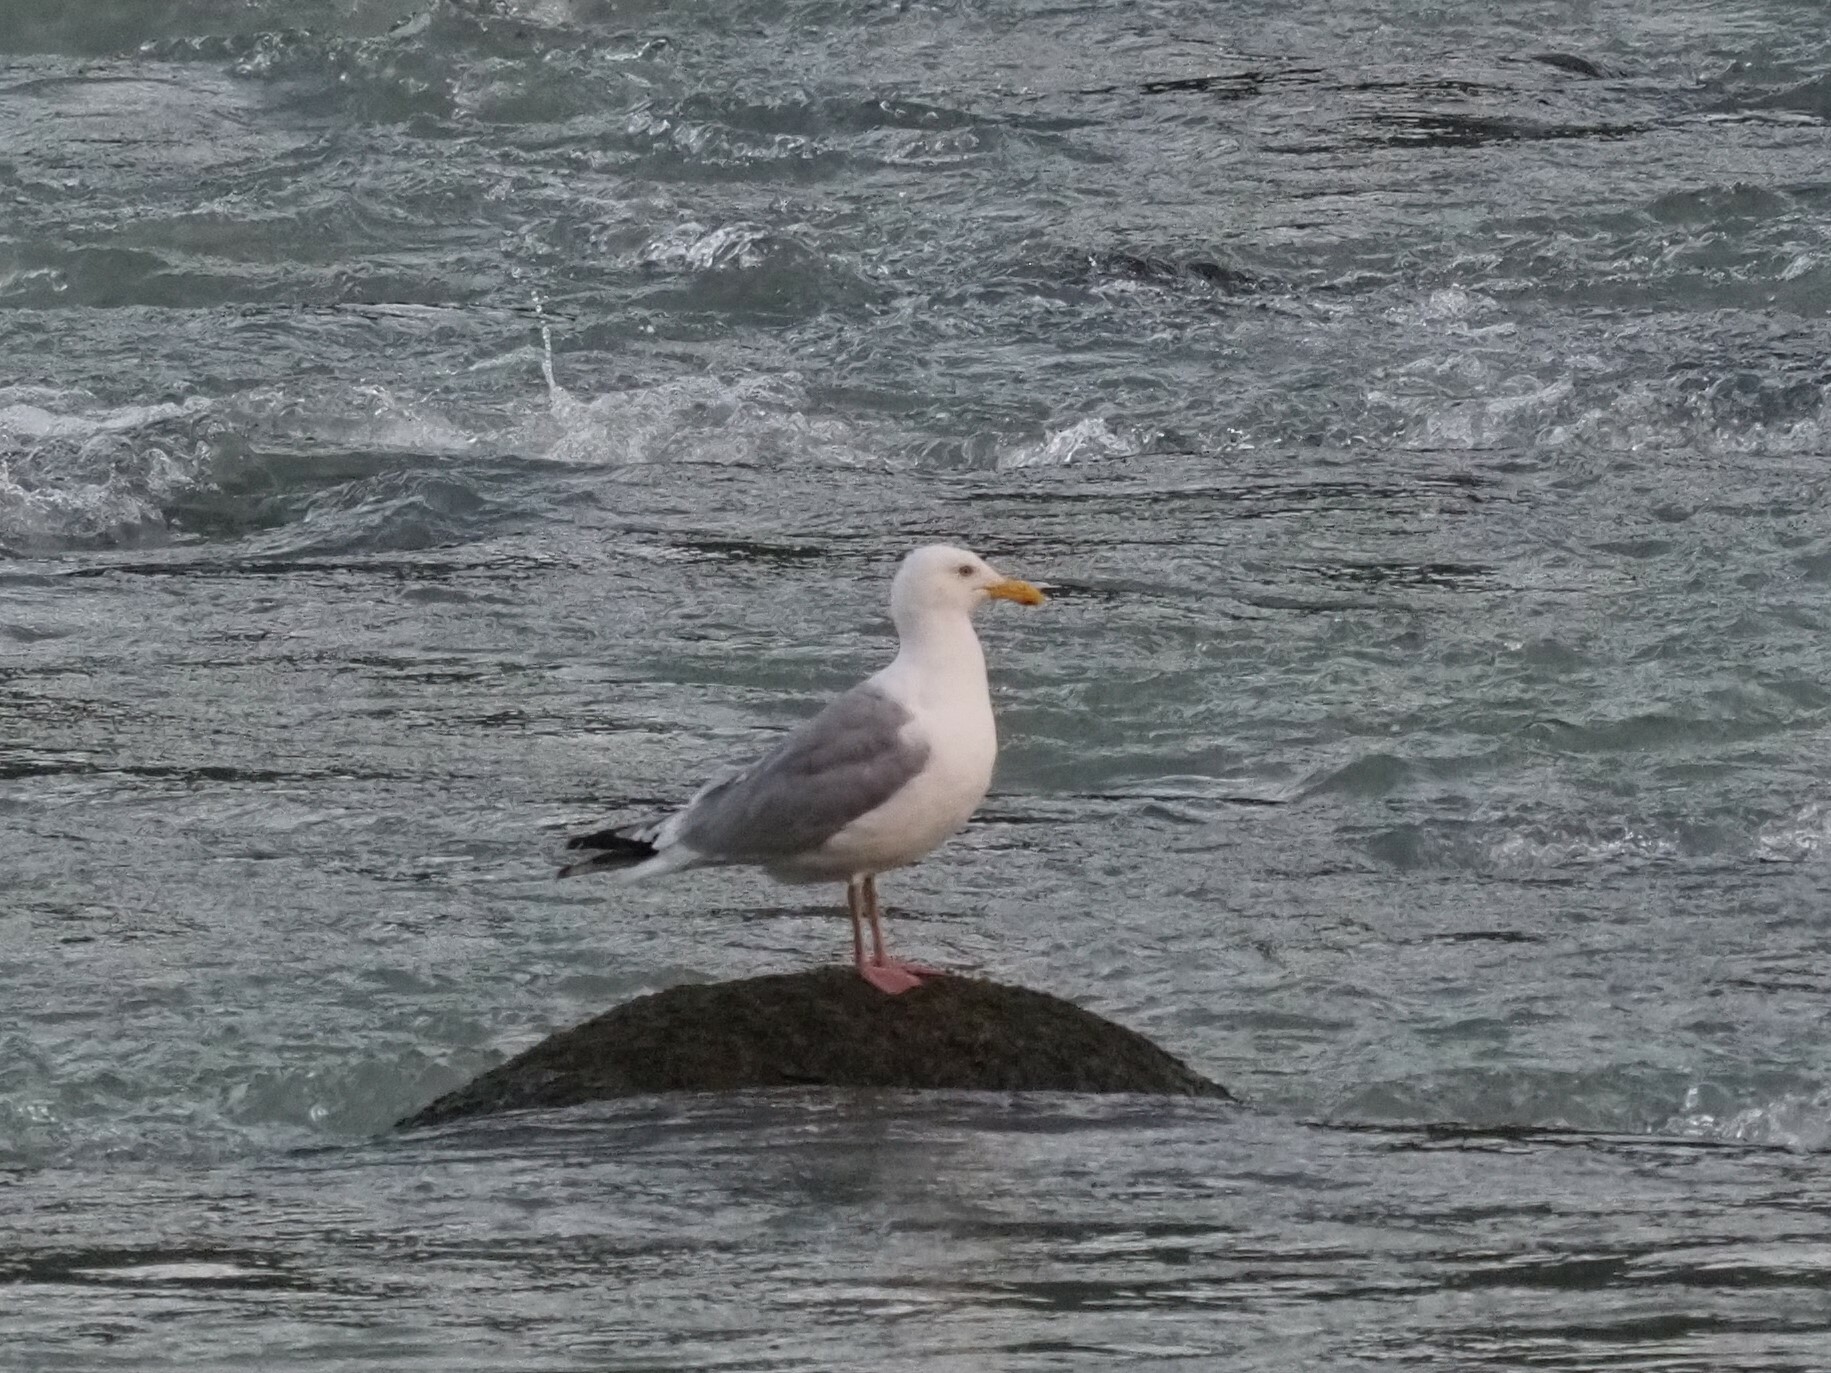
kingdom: Animalia
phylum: Chordata
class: Aves
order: Charadriiformes
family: Laridae
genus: Larus
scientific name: Larus
